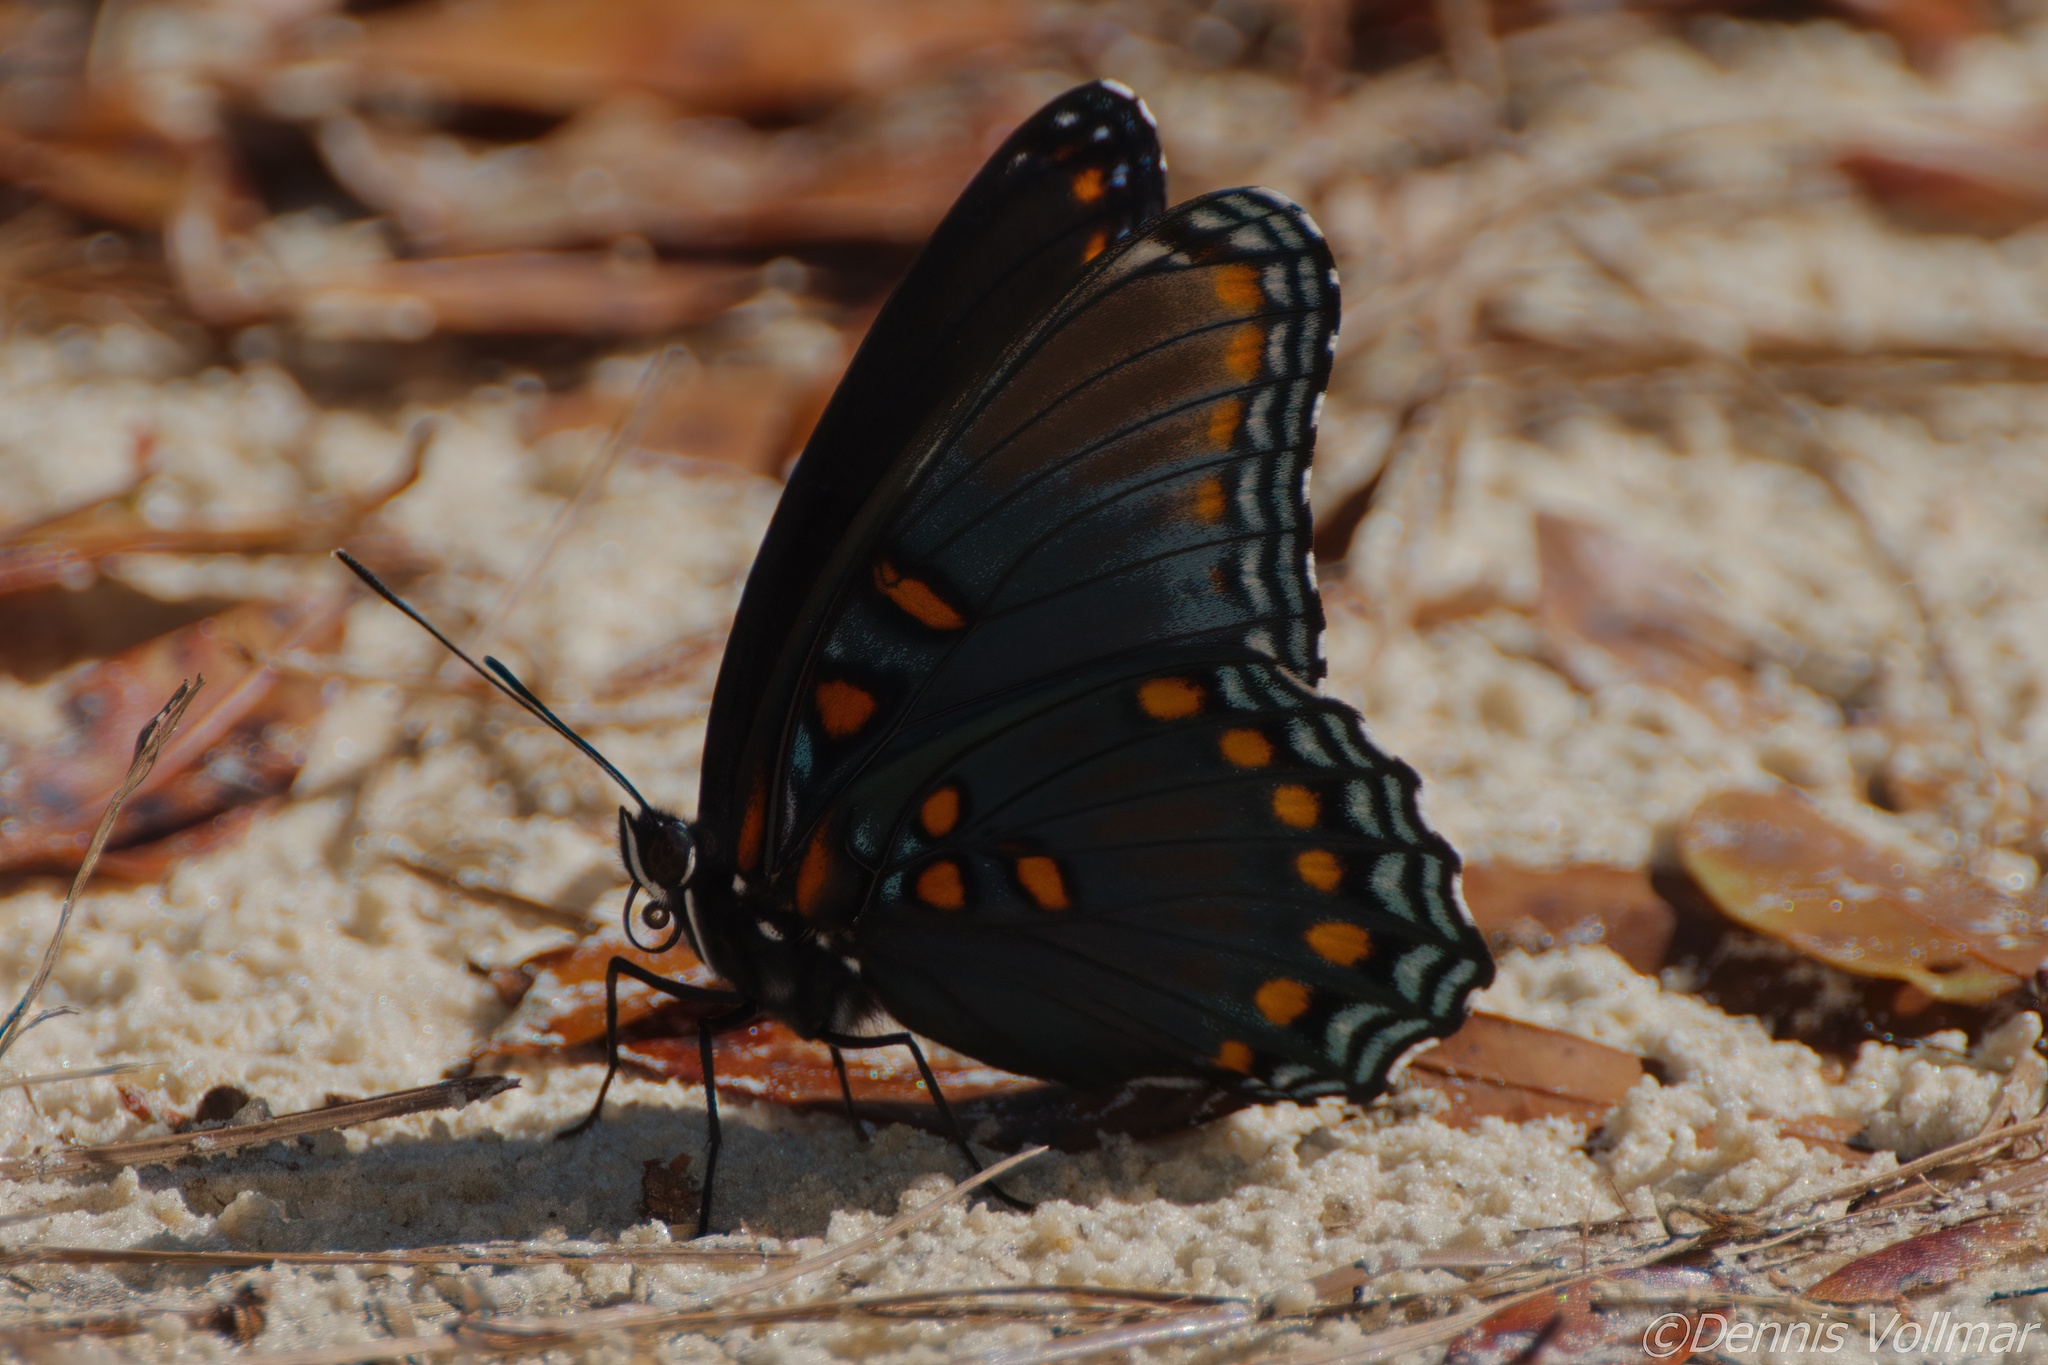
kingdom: Animalia
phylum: Arthropoda
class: Insecta
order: Lepidoptera
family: Nymphalidae
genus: Limenitis
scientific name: Limenitis astyanax
